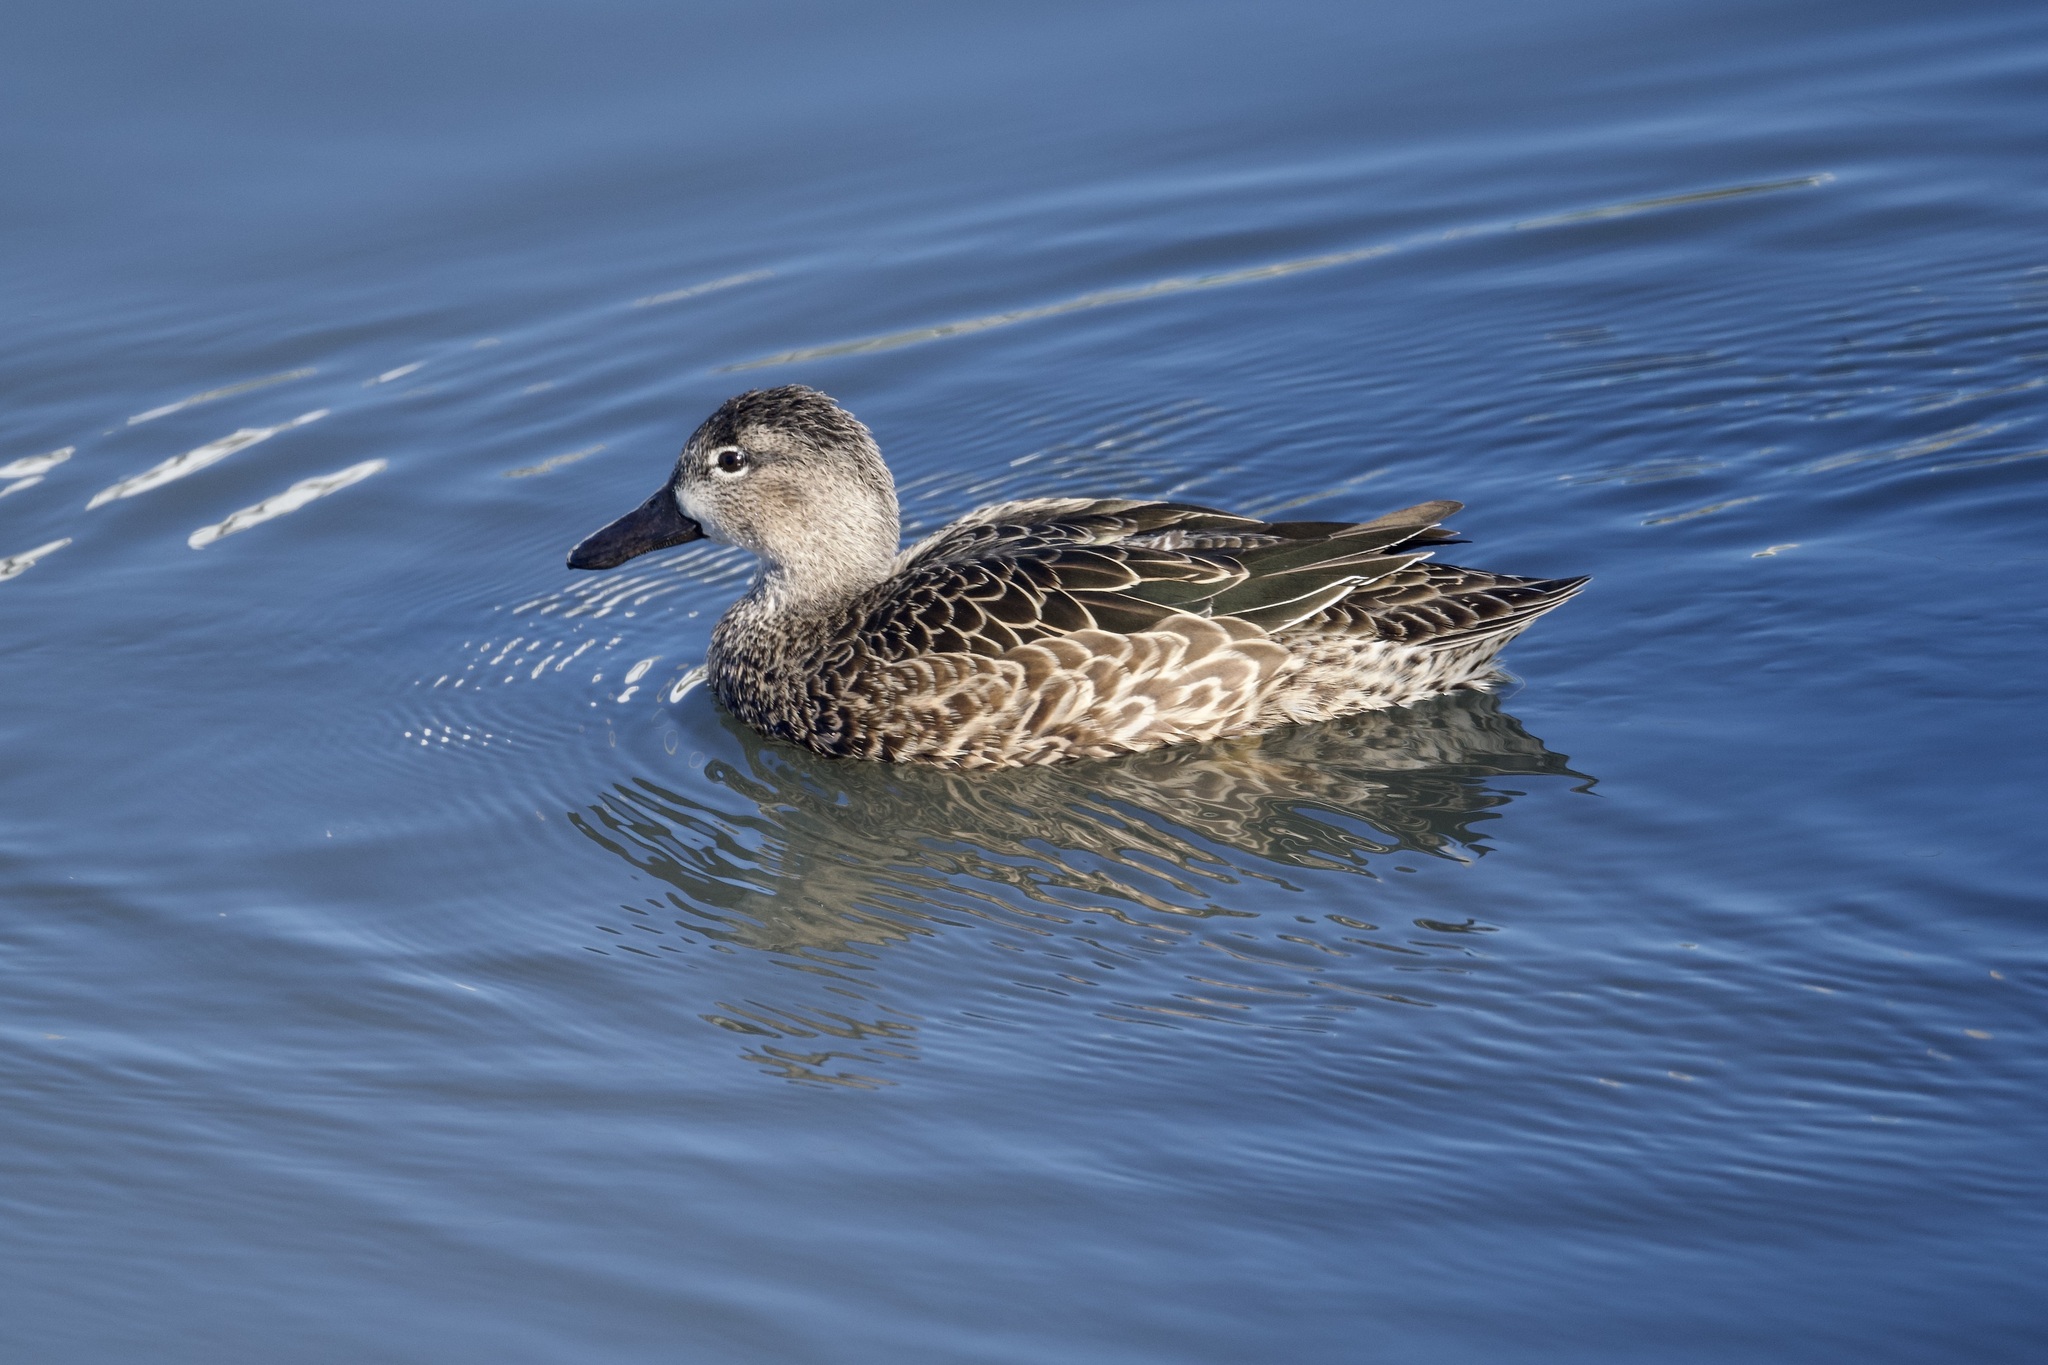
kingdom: Animalia
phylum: Chordata
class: Aves
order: Anseriformes
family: Anatidae
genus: Spatula
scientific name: Spatula discors
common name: Blue-winged teal
